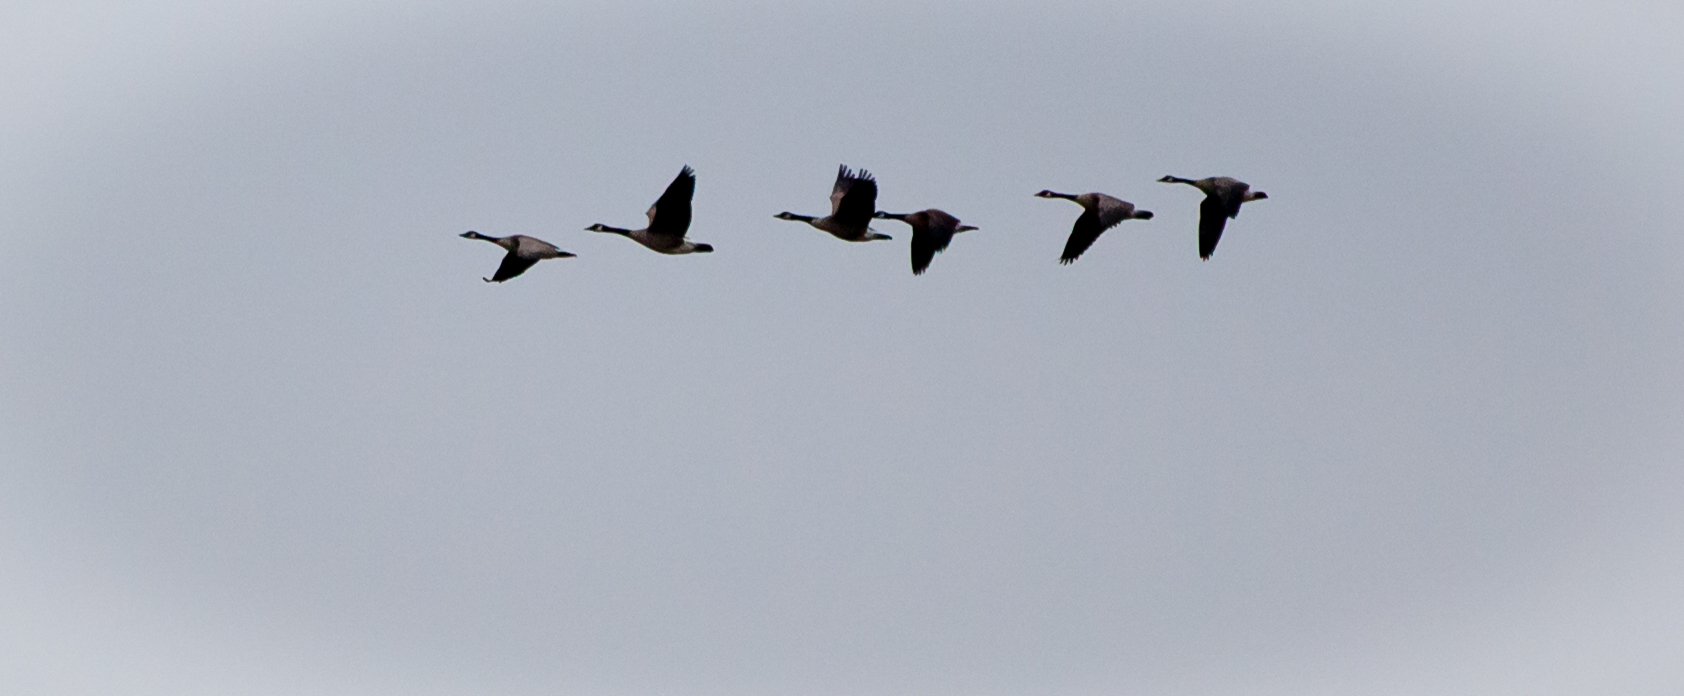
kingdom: Animalia
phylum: Chordata
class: Aves
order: Anseriformes
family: Anatidae
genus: Branta
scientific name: Branta canadensis
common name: Canada goose
